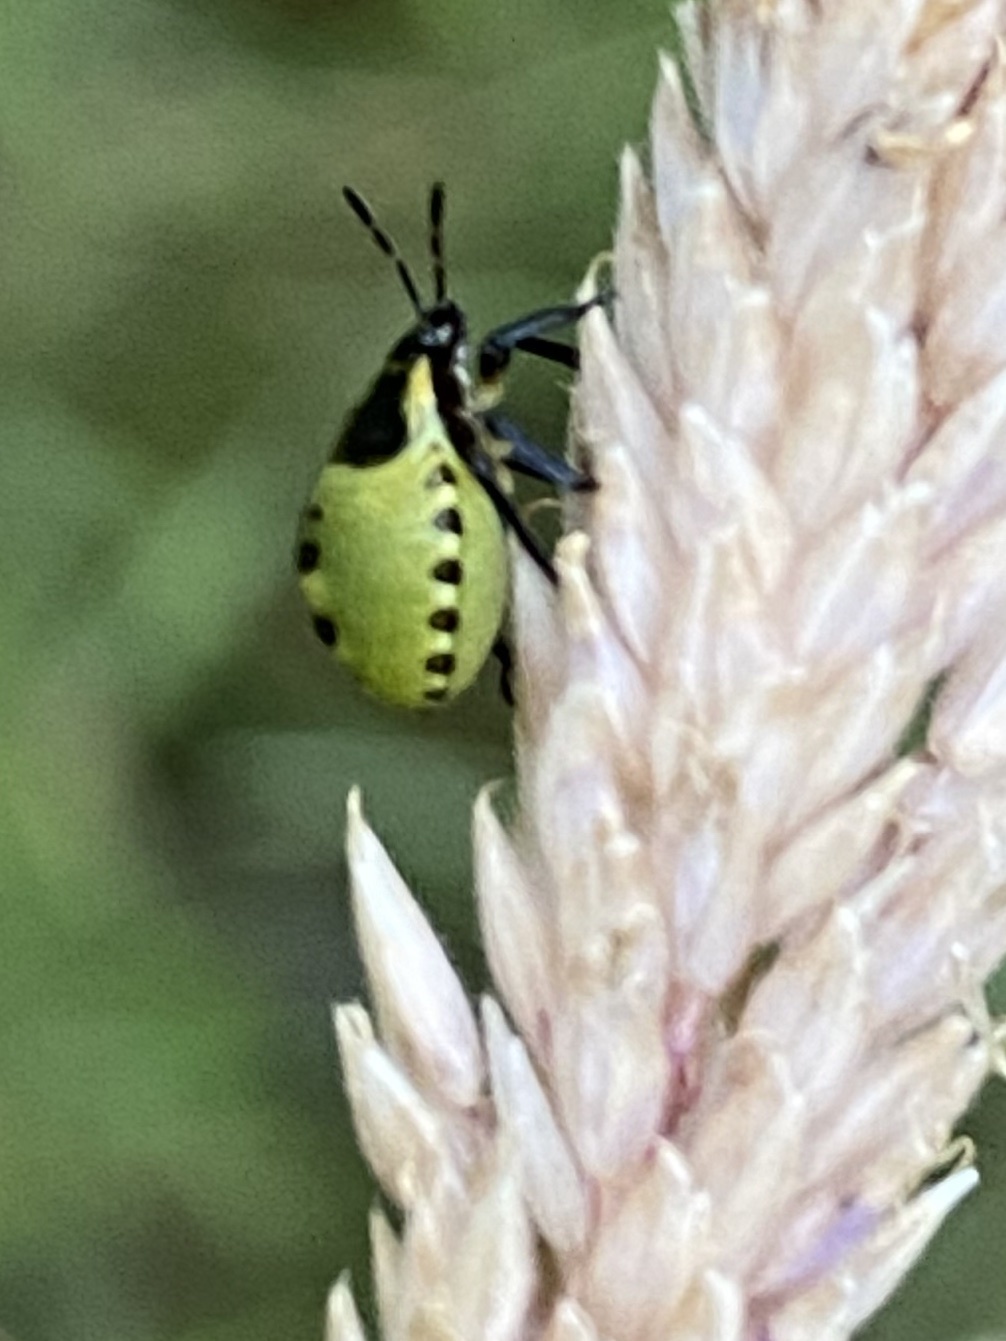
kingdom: Animalia
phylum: Arthropoda
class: Insecta
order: Hemiptera
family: Pentatomidae
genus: Palomena
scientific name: Palomena prasina
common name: Green shieldbug
